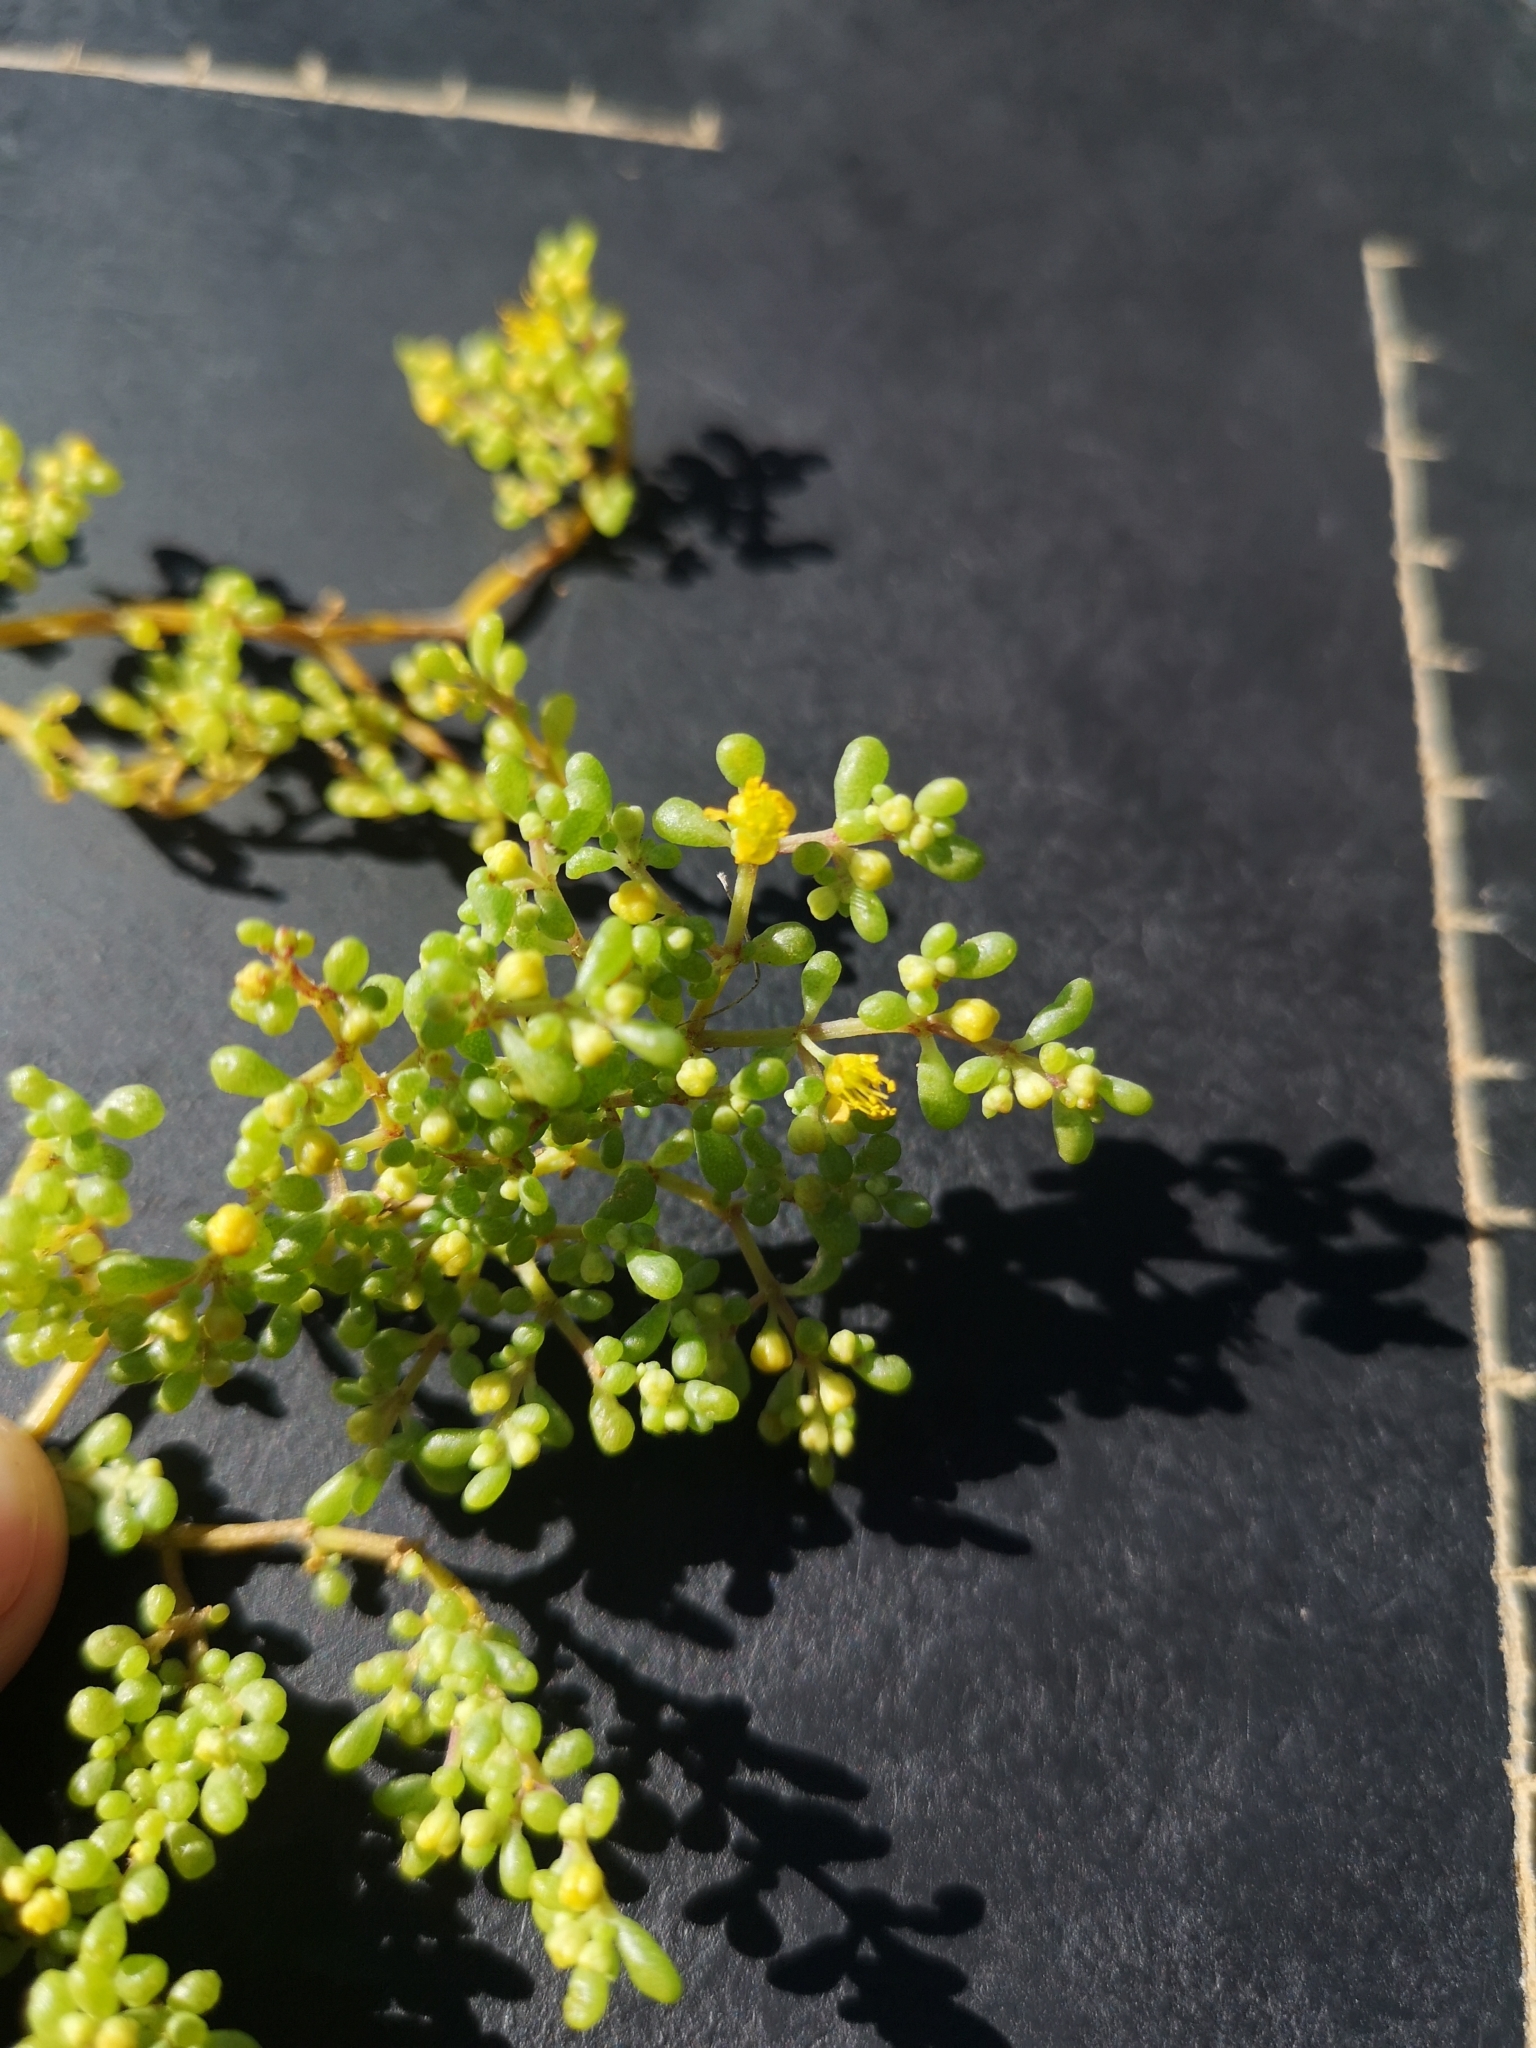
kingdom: Plantae
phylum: Tracheophyta
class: Magnoliopsida
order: Zygophyllales
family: Zygophyllaceae
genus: Tetraena
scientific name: Tetraena simplex
